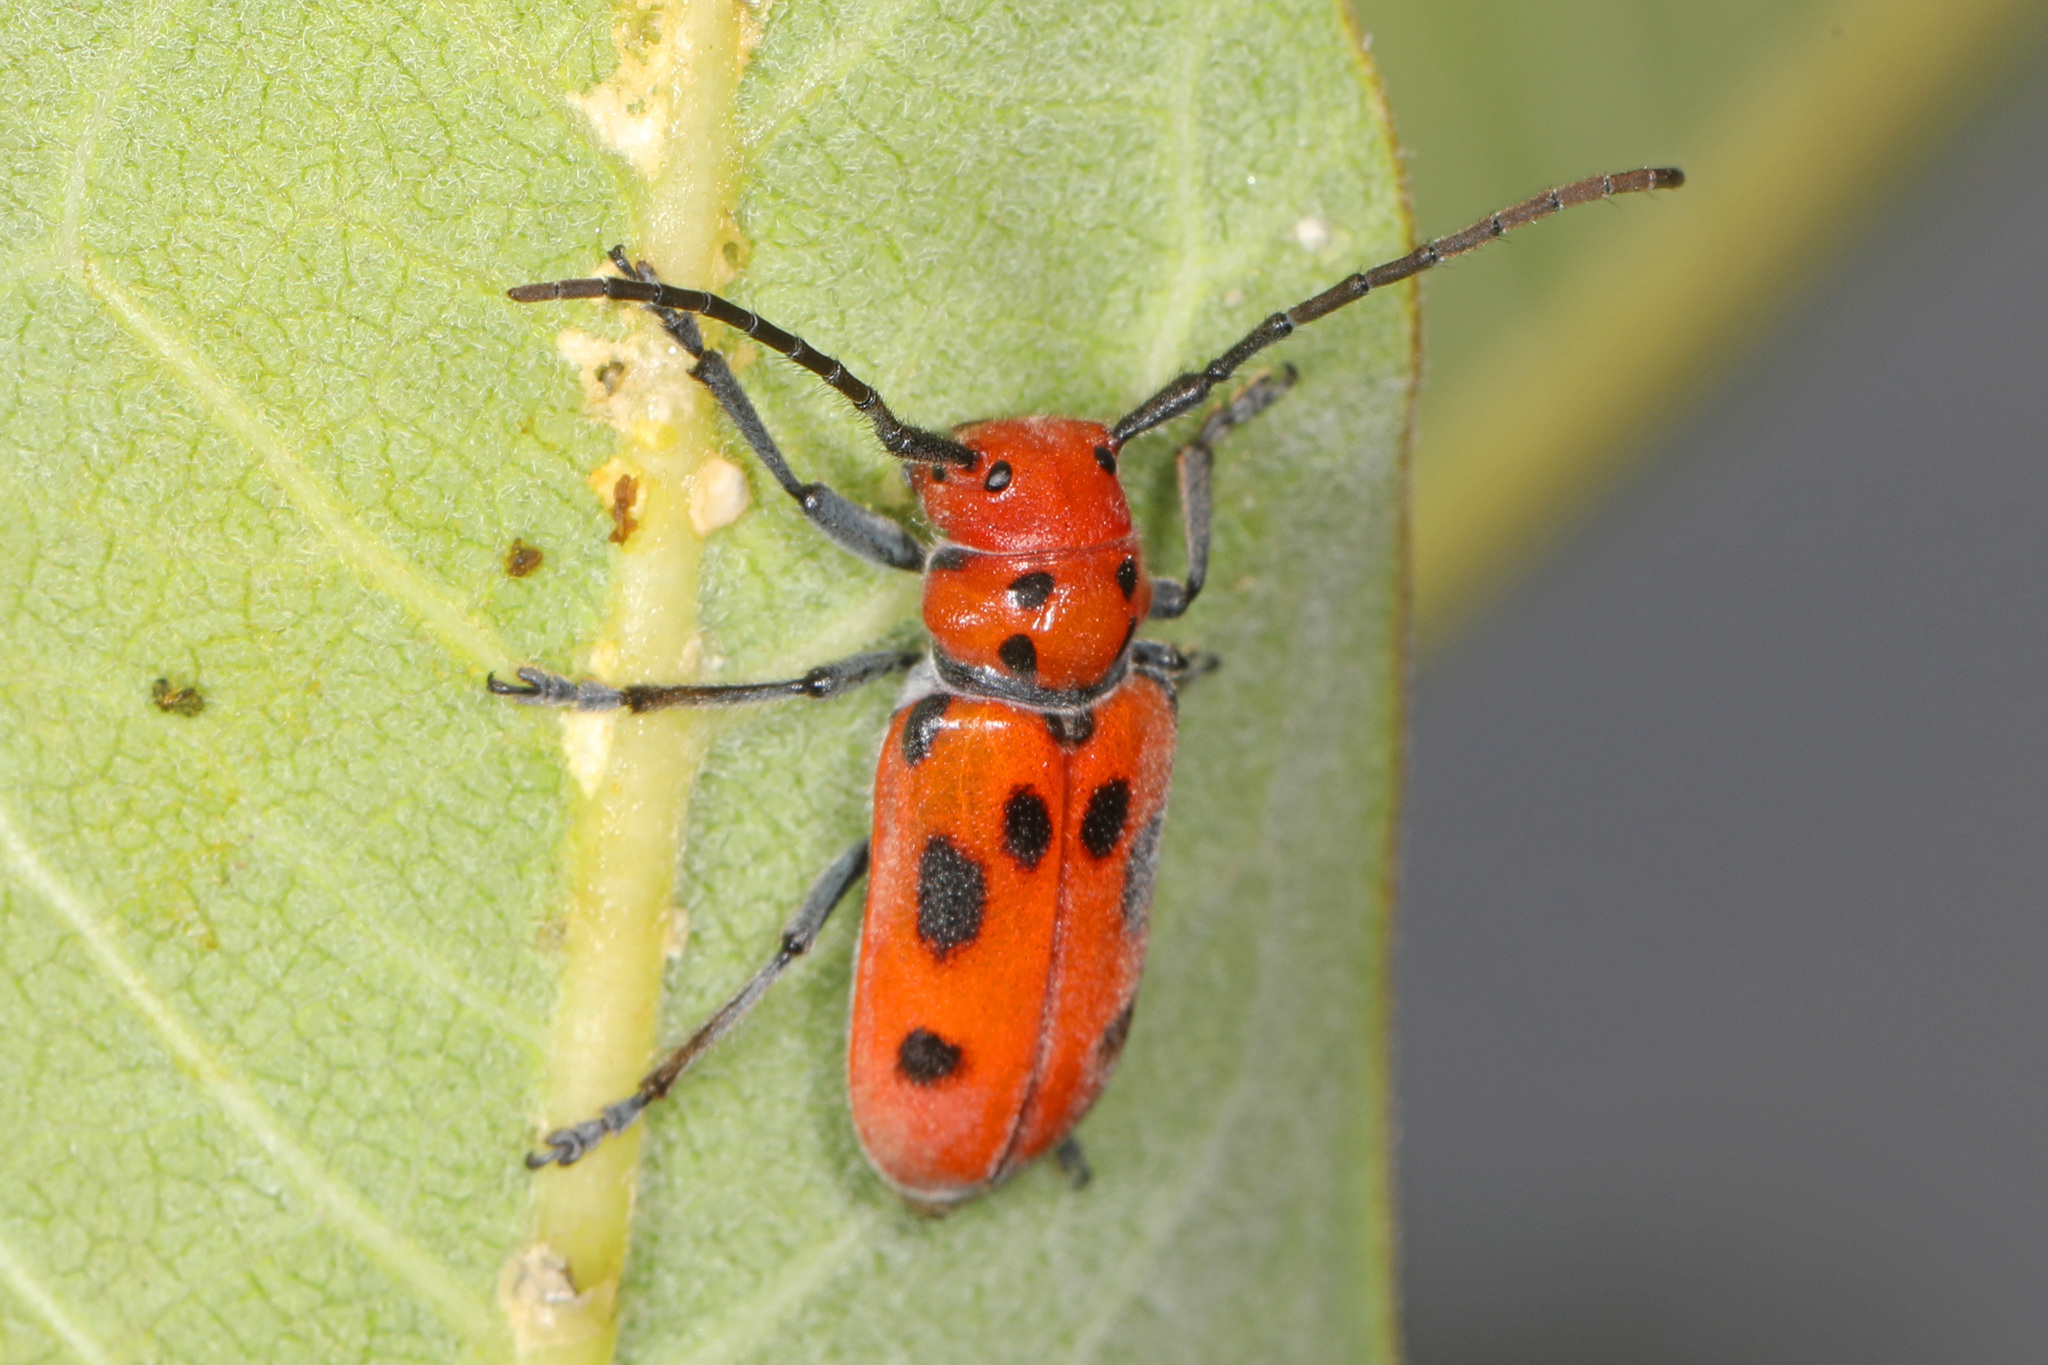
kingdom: Animalia
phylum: Arthropoda
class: Insecta
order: Coleoptera
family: Cerambycidae
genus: Tetraopes
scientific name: Tetraopes tetrophthalmus
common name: Red milkweed beetle
